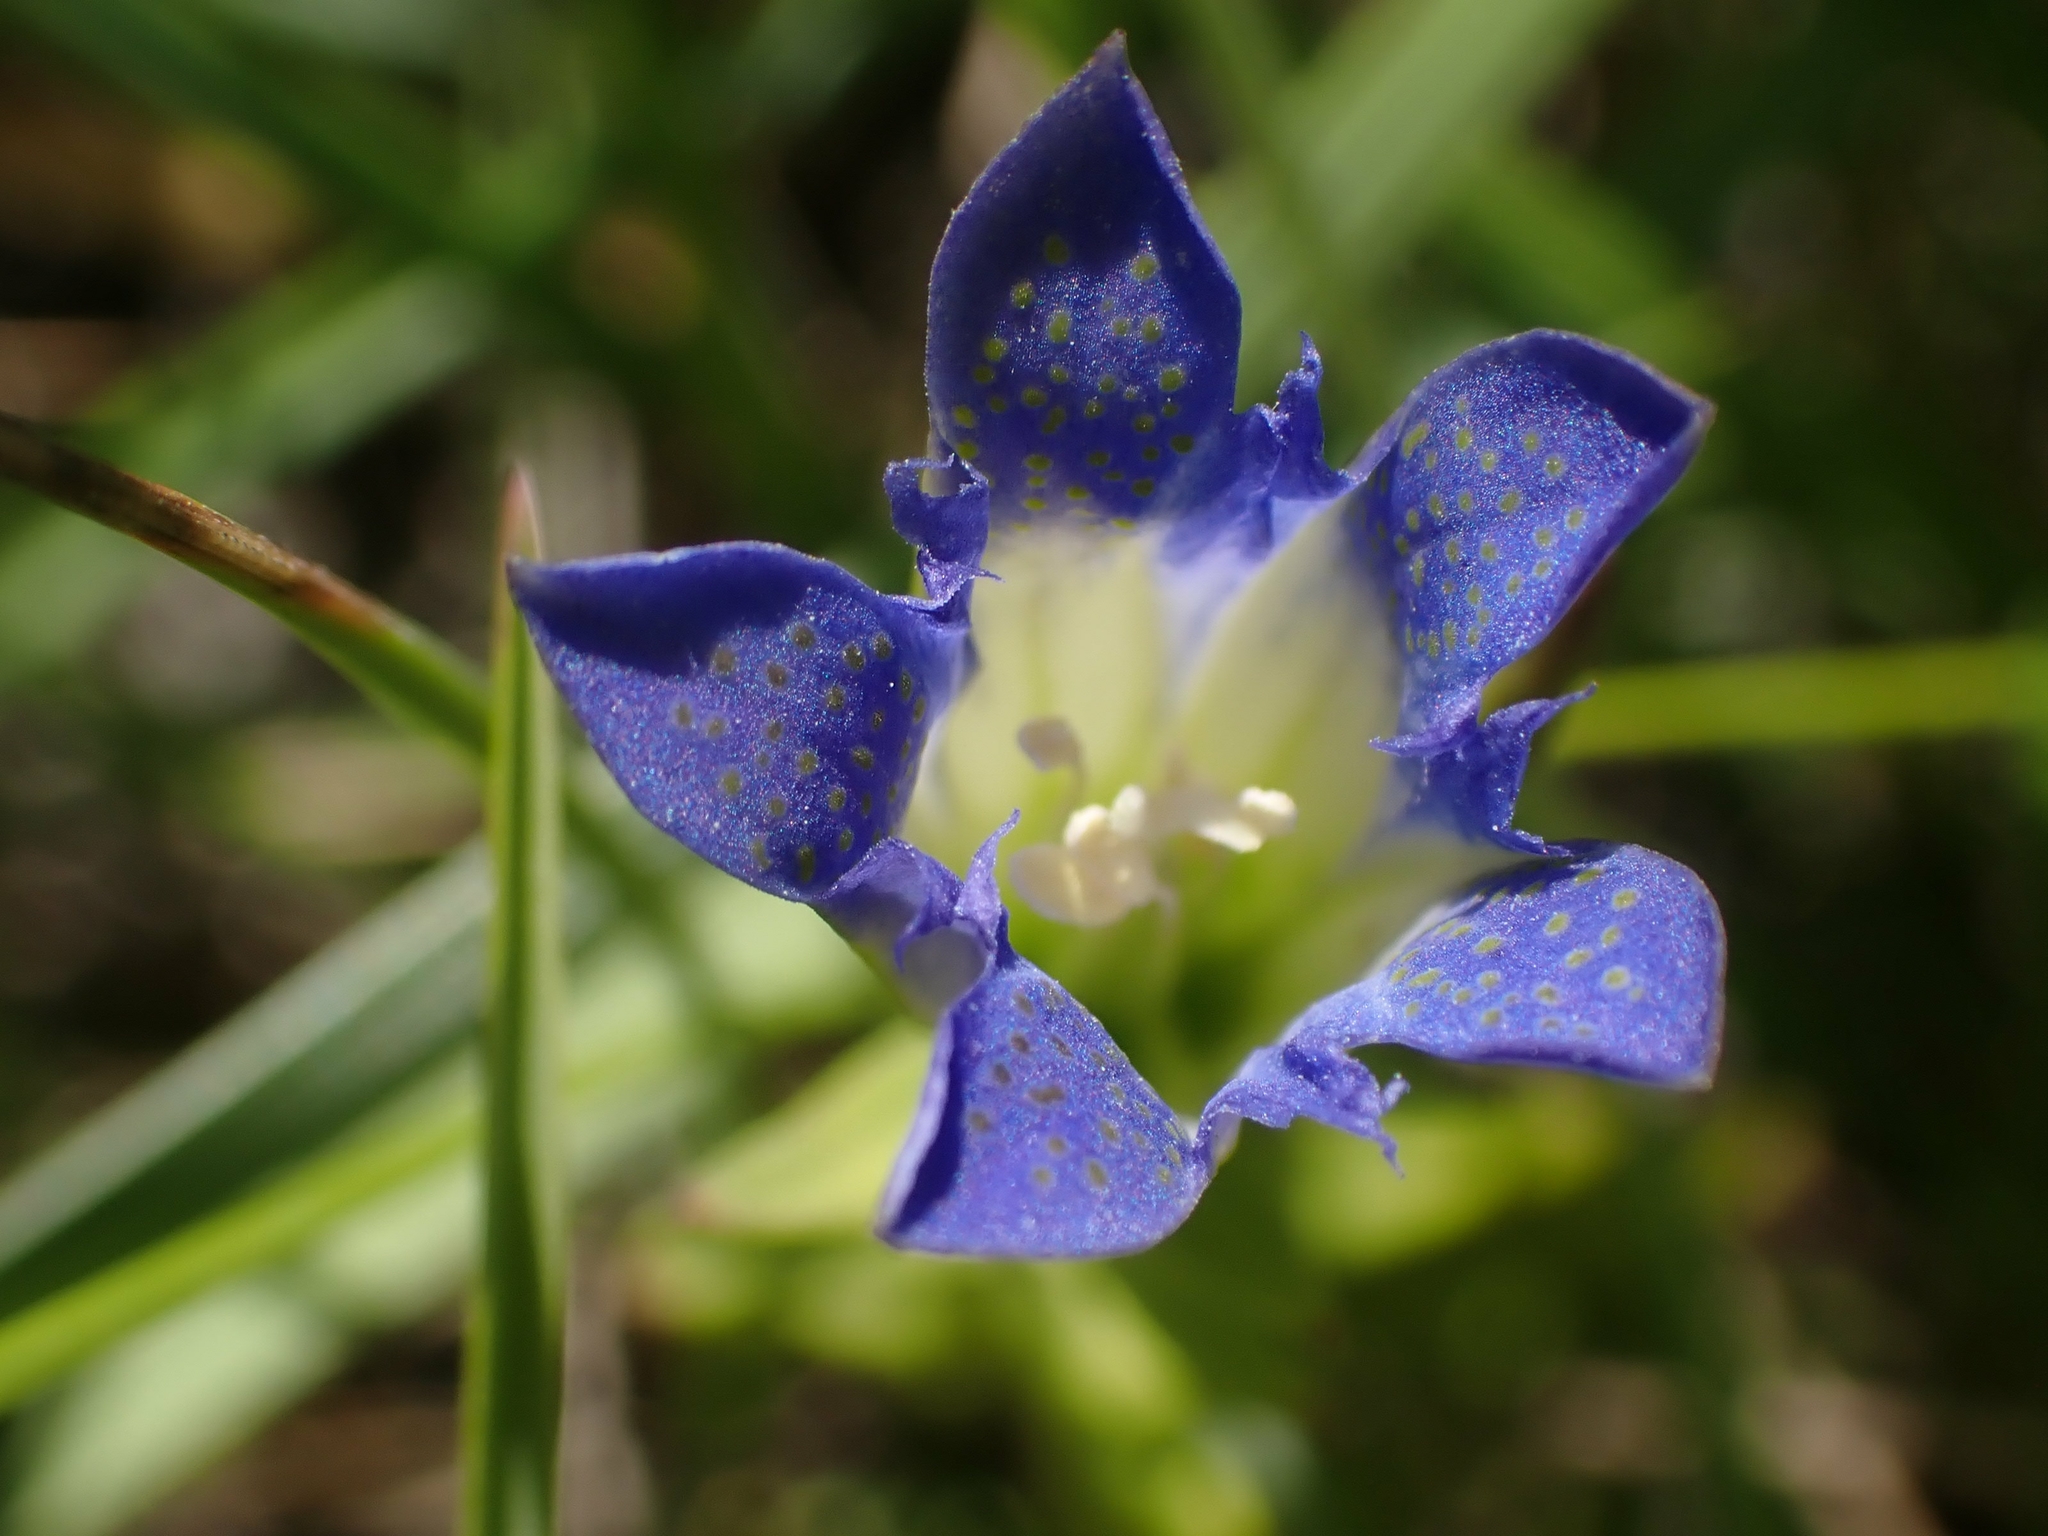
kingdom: Plantae
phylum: Tracheophyta
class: Magnoliopsida
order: Gentianales
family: Gentianaceae
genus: Gentiana
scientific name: Gentiana affinis
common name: Rocky mountain gentian
